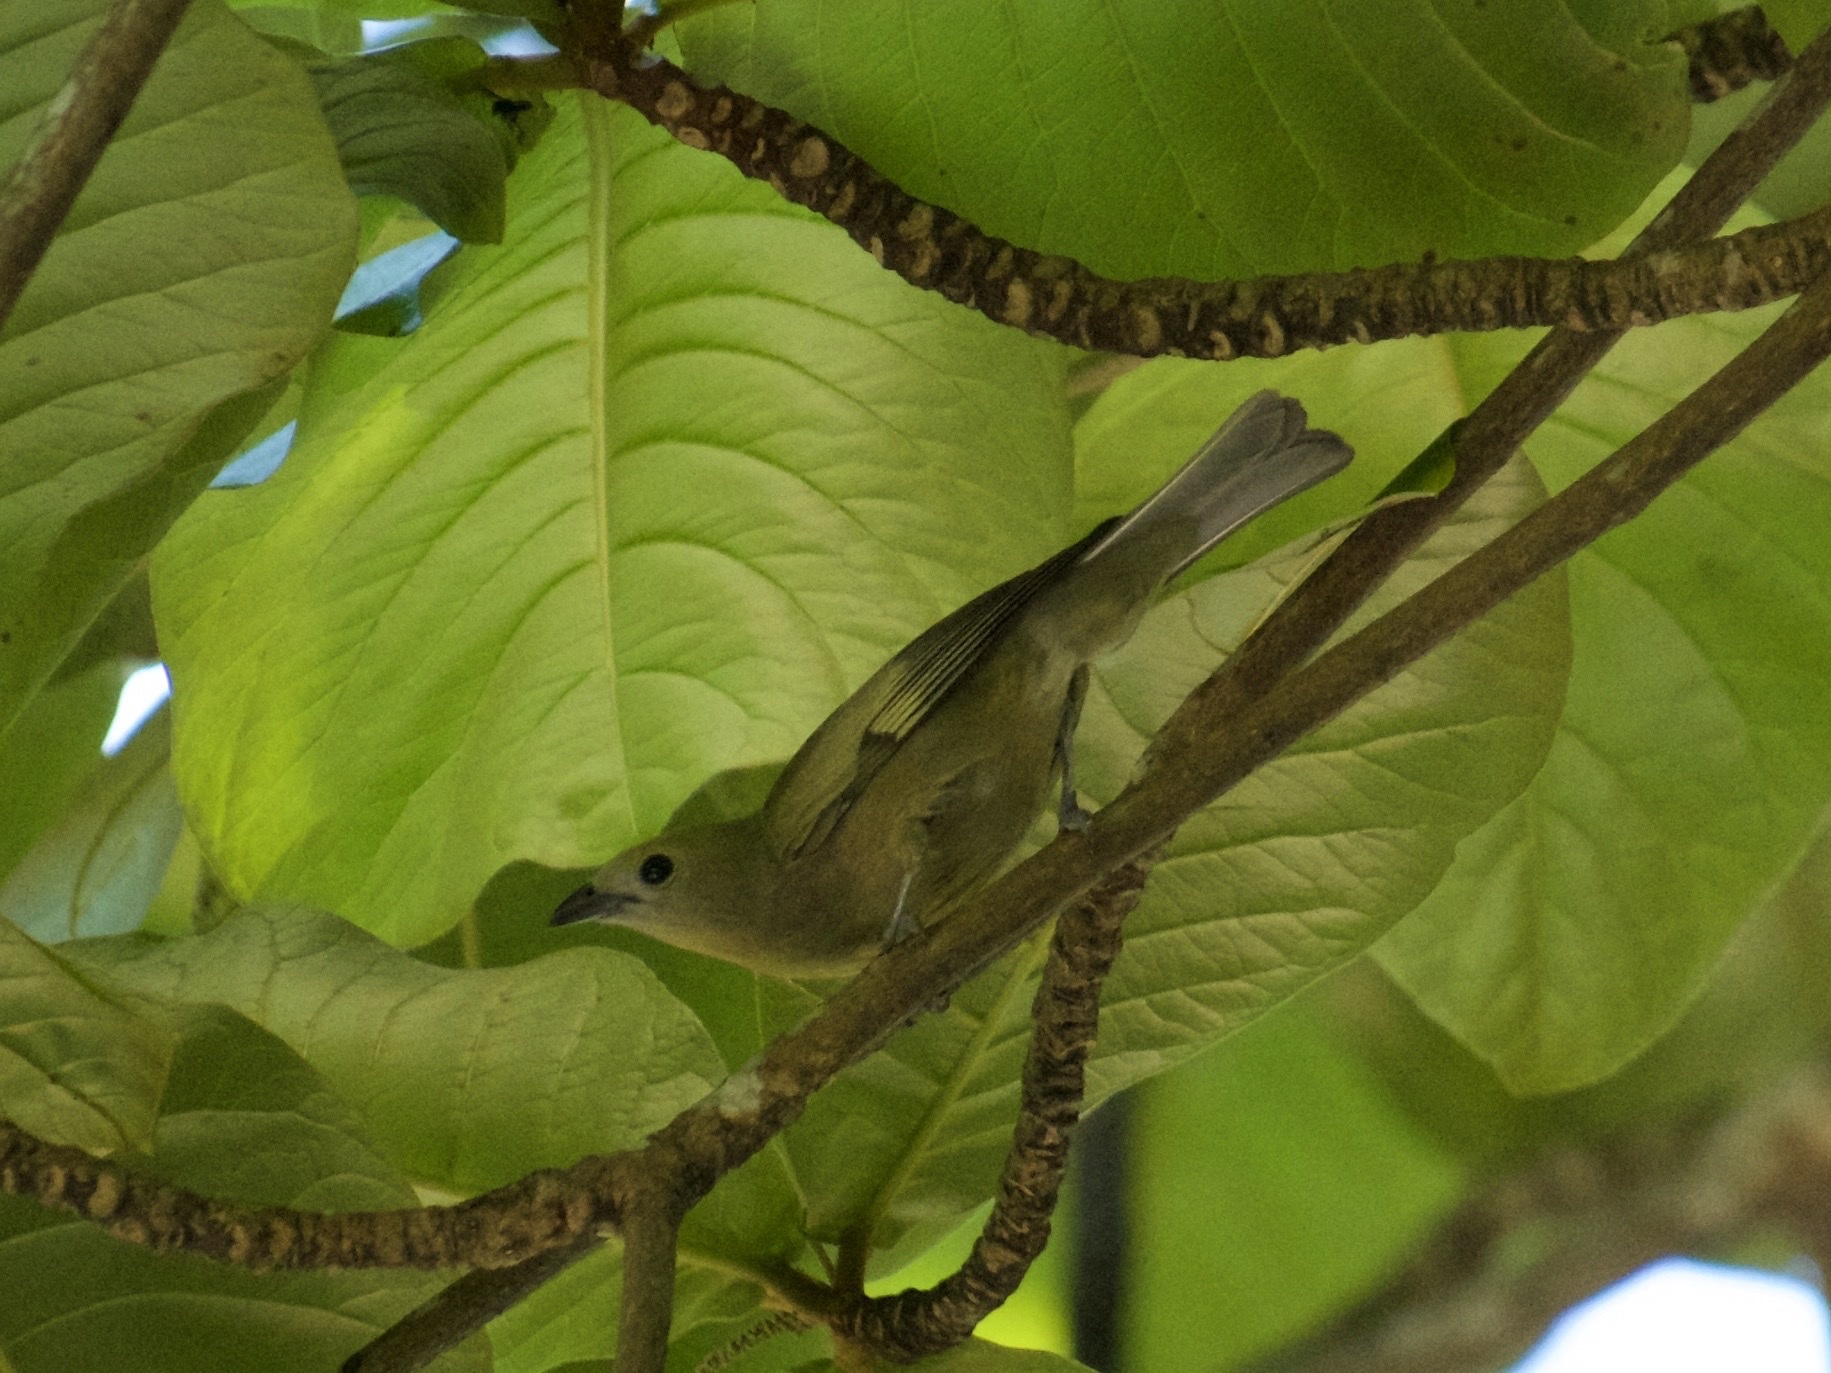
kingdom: Animalia
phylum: Chordata
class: Aves
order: Passeriformes
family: Thraupidae
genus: Thraupis
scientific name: Thraupis palmarum
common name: Palm tanager
